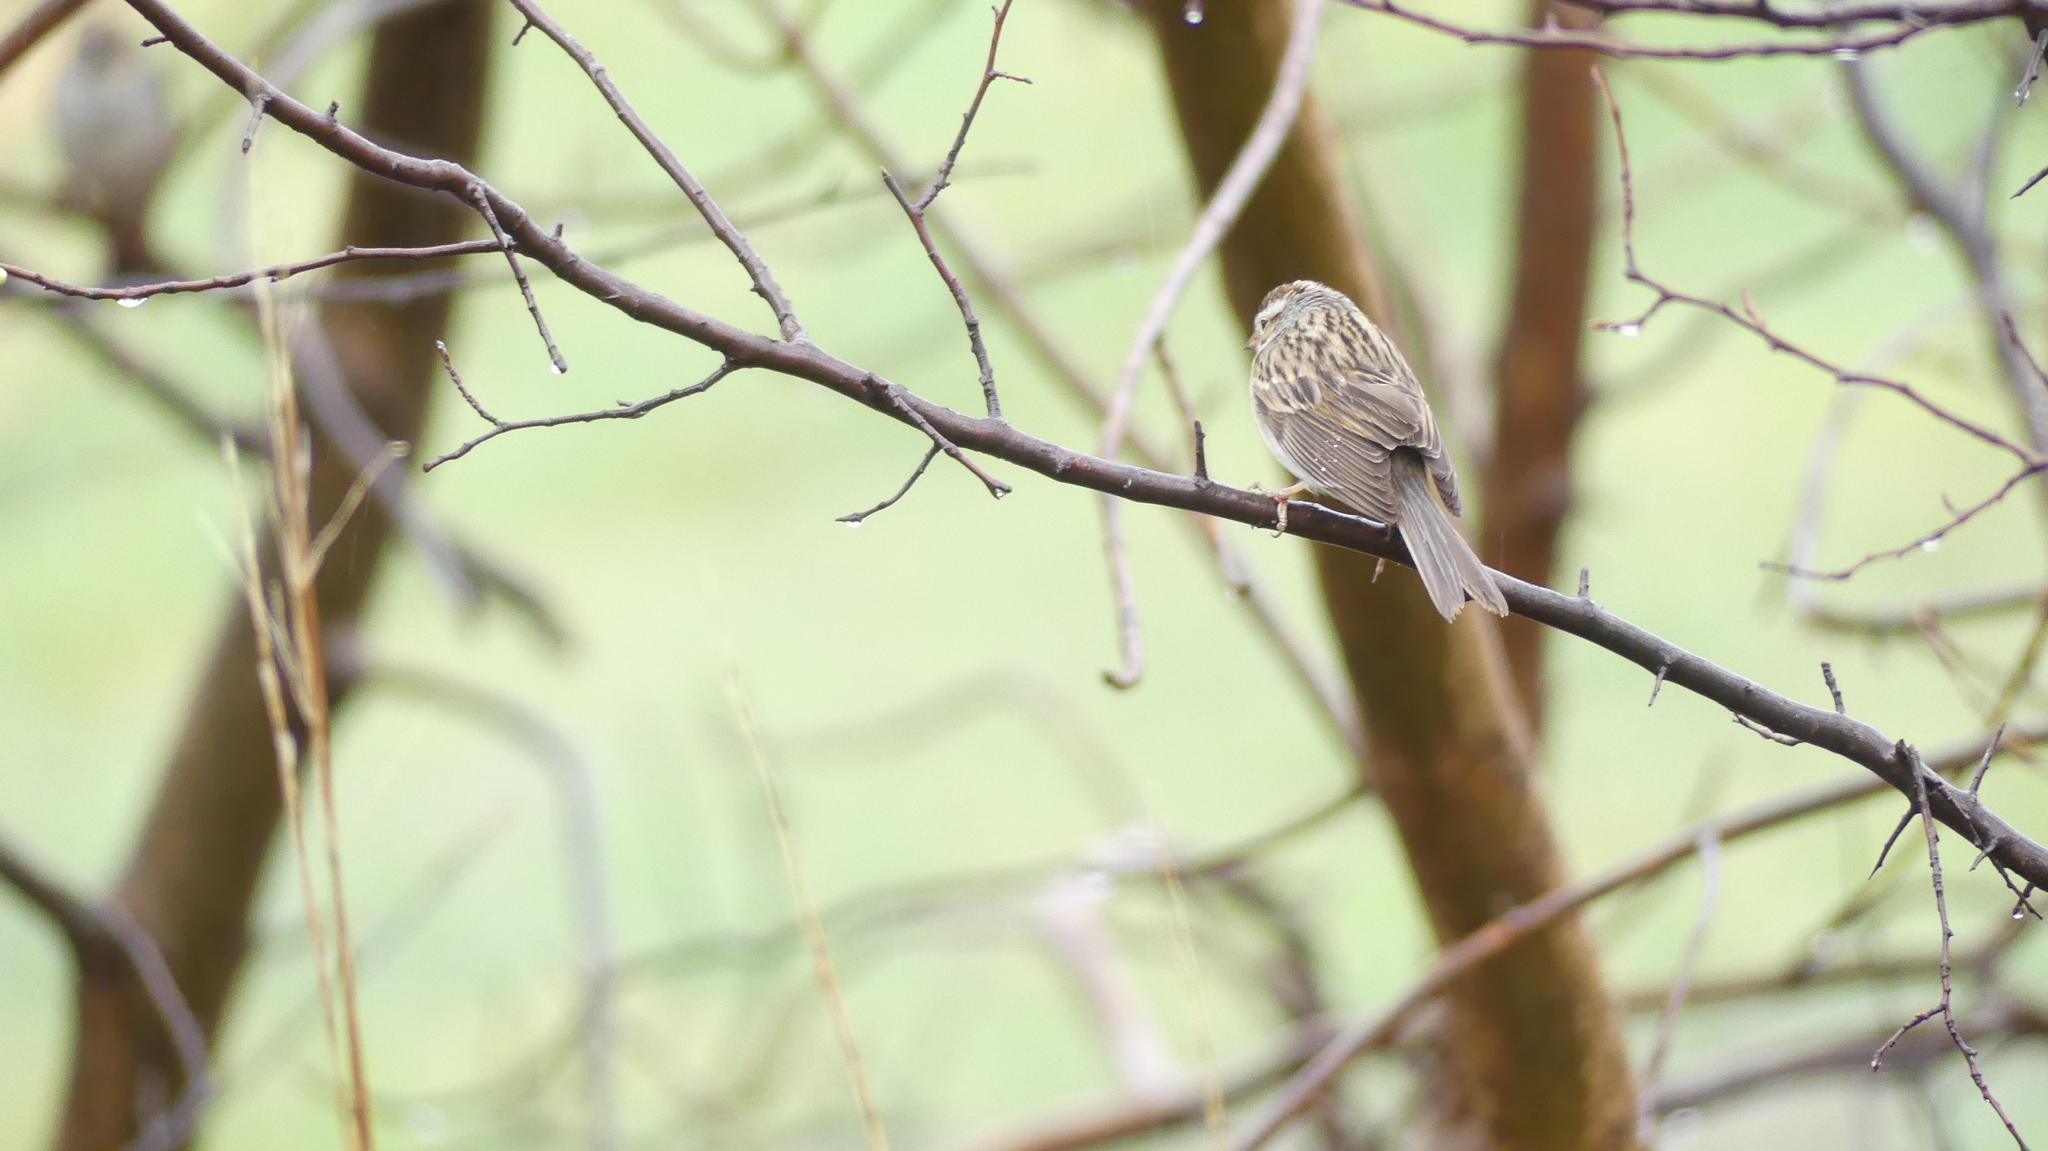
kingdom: Animalia
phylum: Chordata
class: Aves
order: Passeriformes
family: Passerellidae
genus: Spizella
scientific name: Spizella pallida
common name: Clay-colored sparrow
